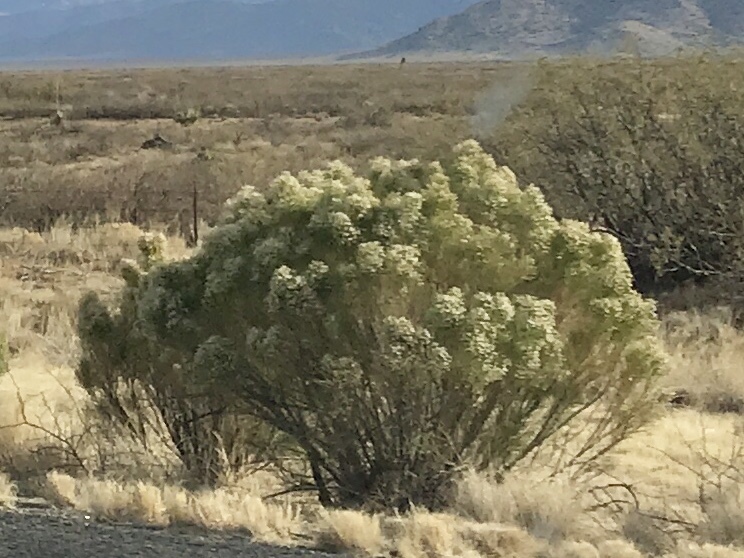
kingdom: Plantae
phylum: Tracheophyta
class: Magnoliopsida
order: Asterales
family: Asteraceae
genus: Baccharis
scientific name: Baccharis sarothroides
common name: Desert-broom
